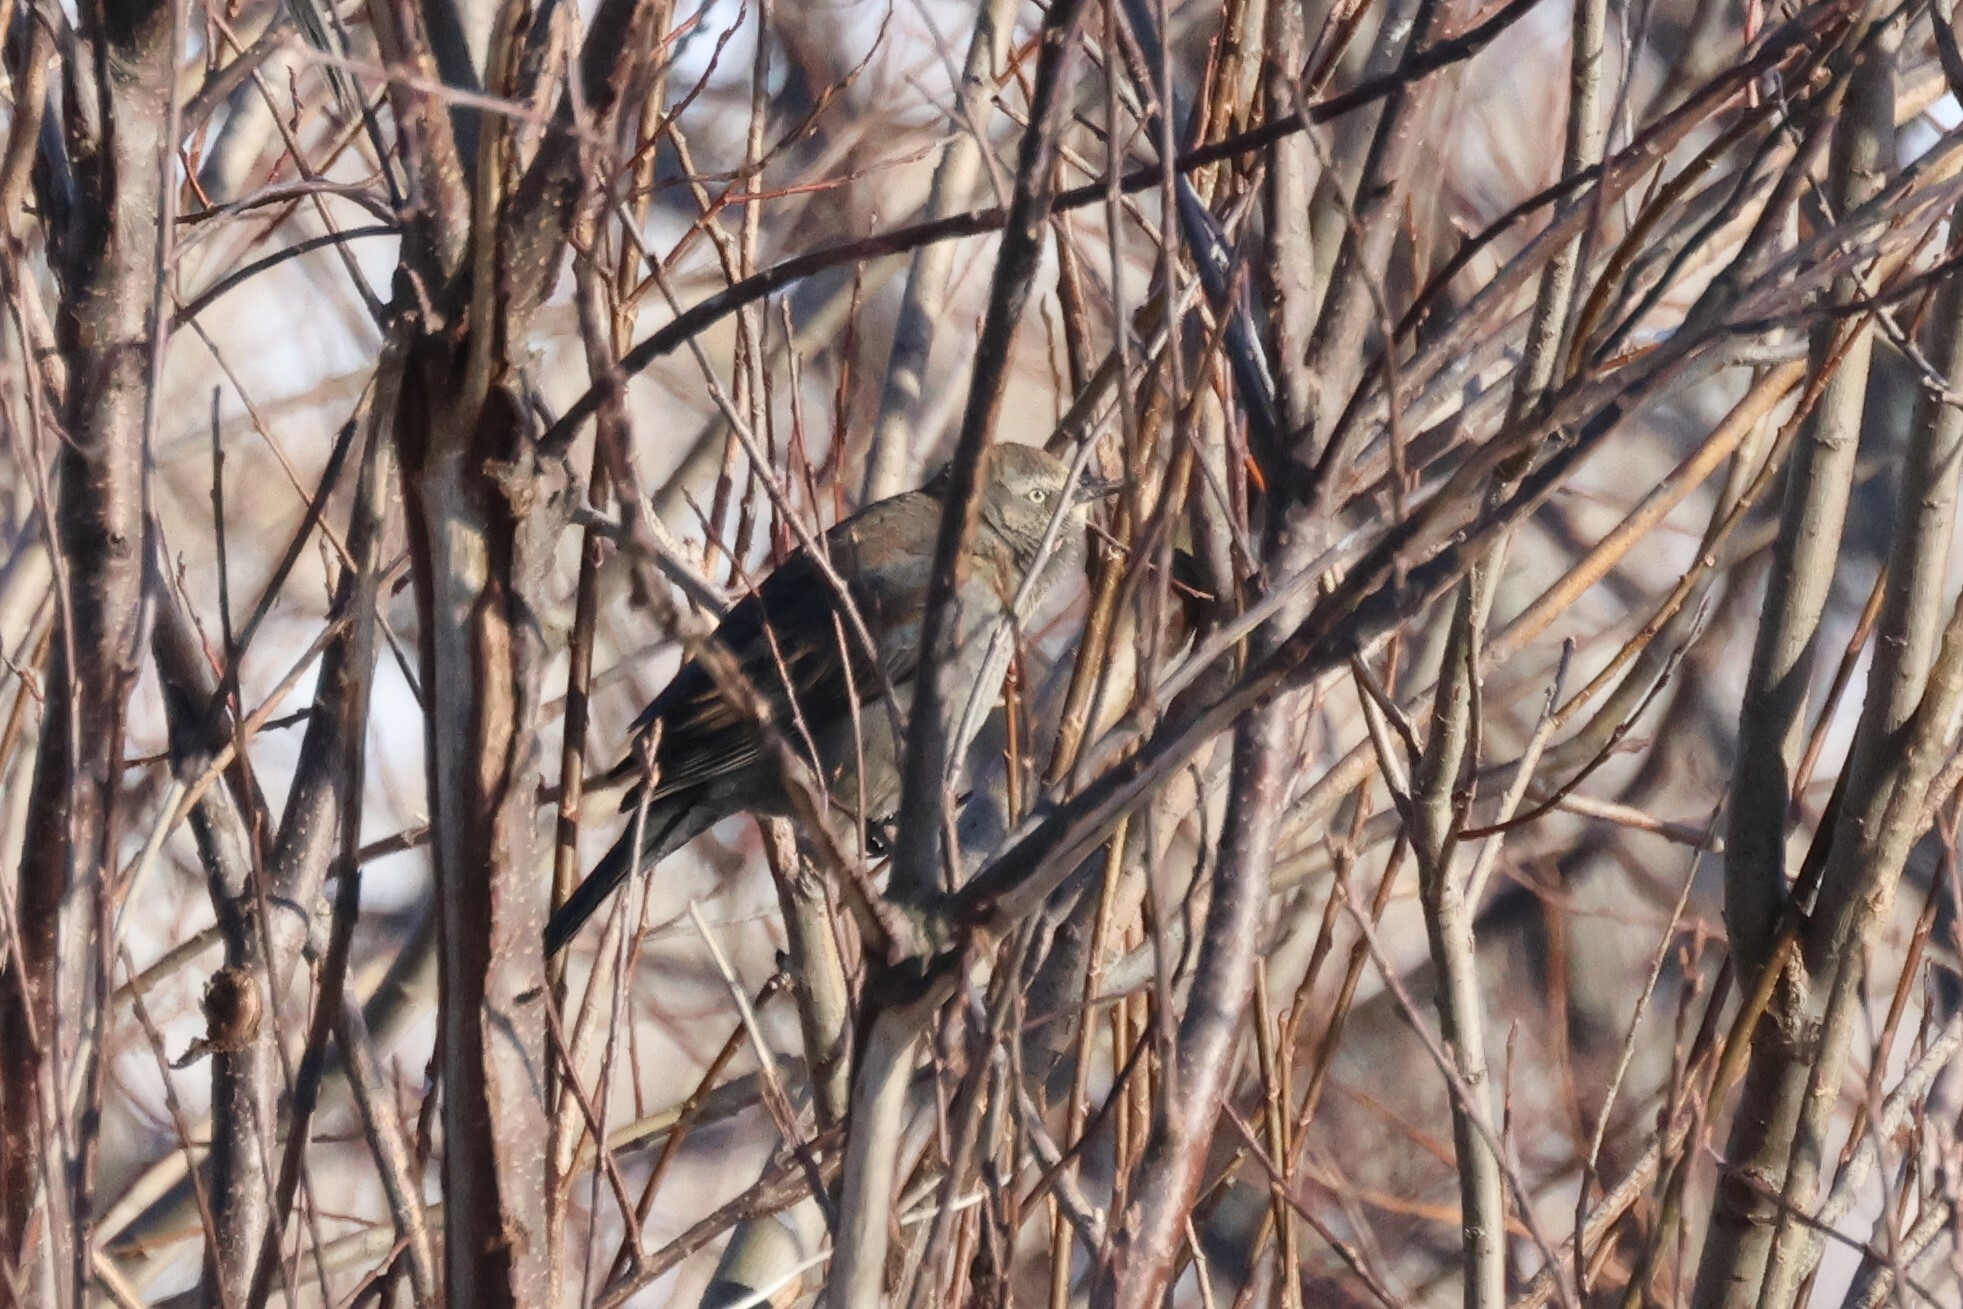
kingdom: Animalia
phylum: Chordata
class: Aves
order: Passeriformes
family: Icteridae
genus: Euphagus
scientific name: Euphagus carolinus
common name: Rusty blackbird
